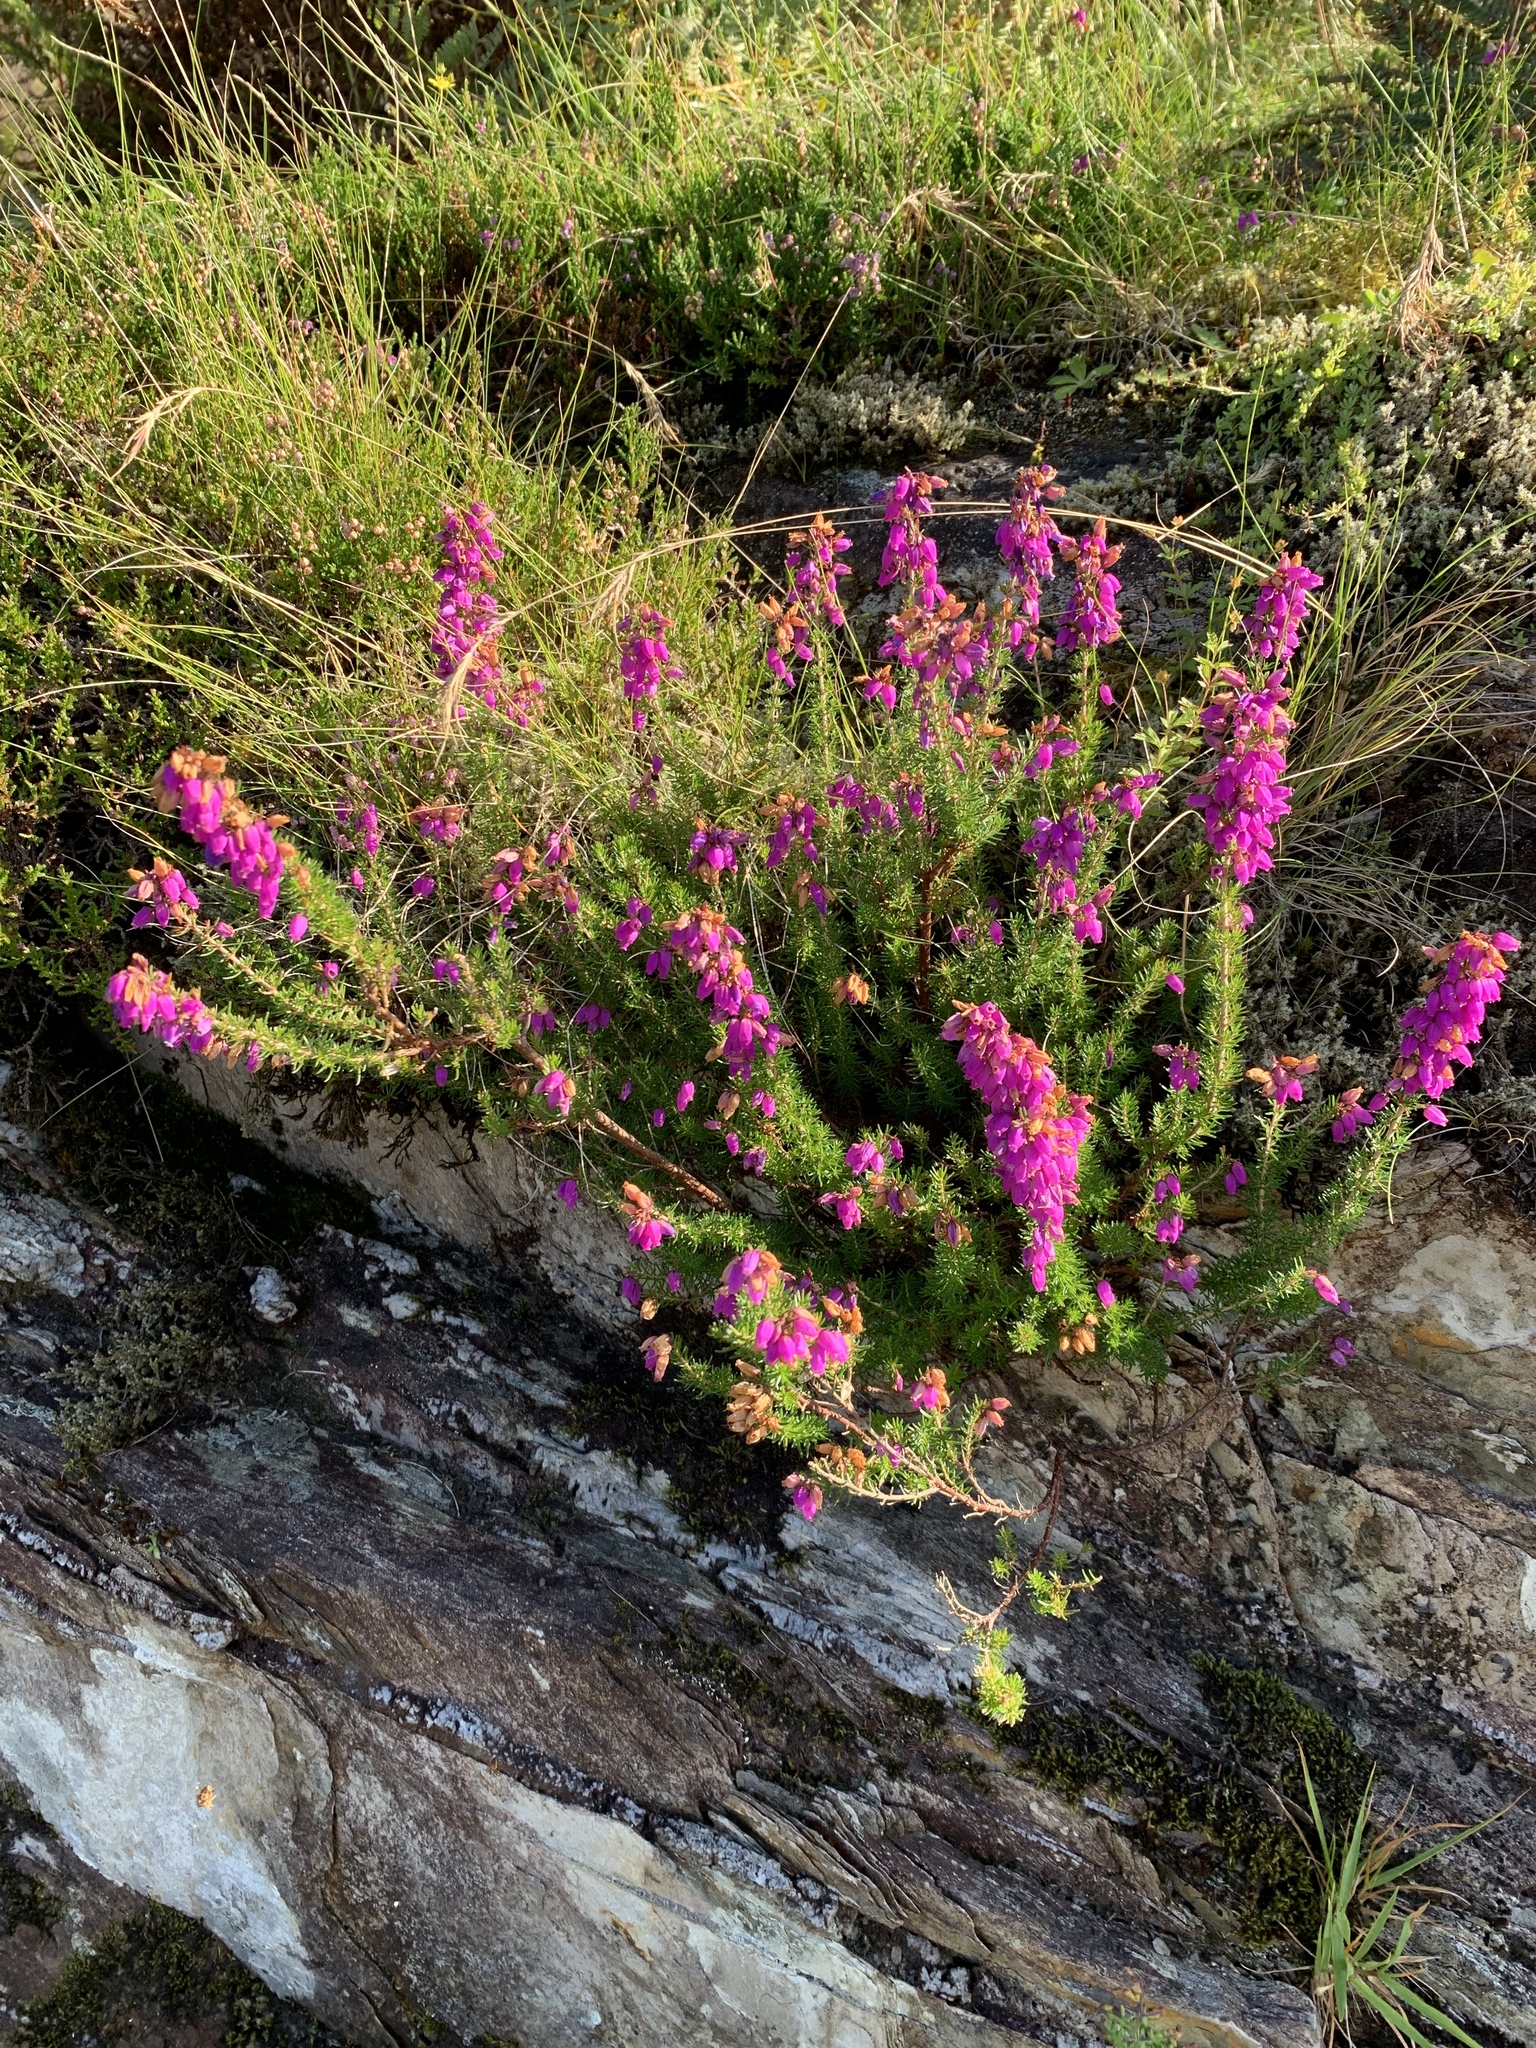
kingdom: Plantae
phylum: Tracheophyta
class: Magnoliopsida
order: Ericales
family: Ericaceae
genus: Erica
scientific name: Erica cinerea
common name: Bell heather
